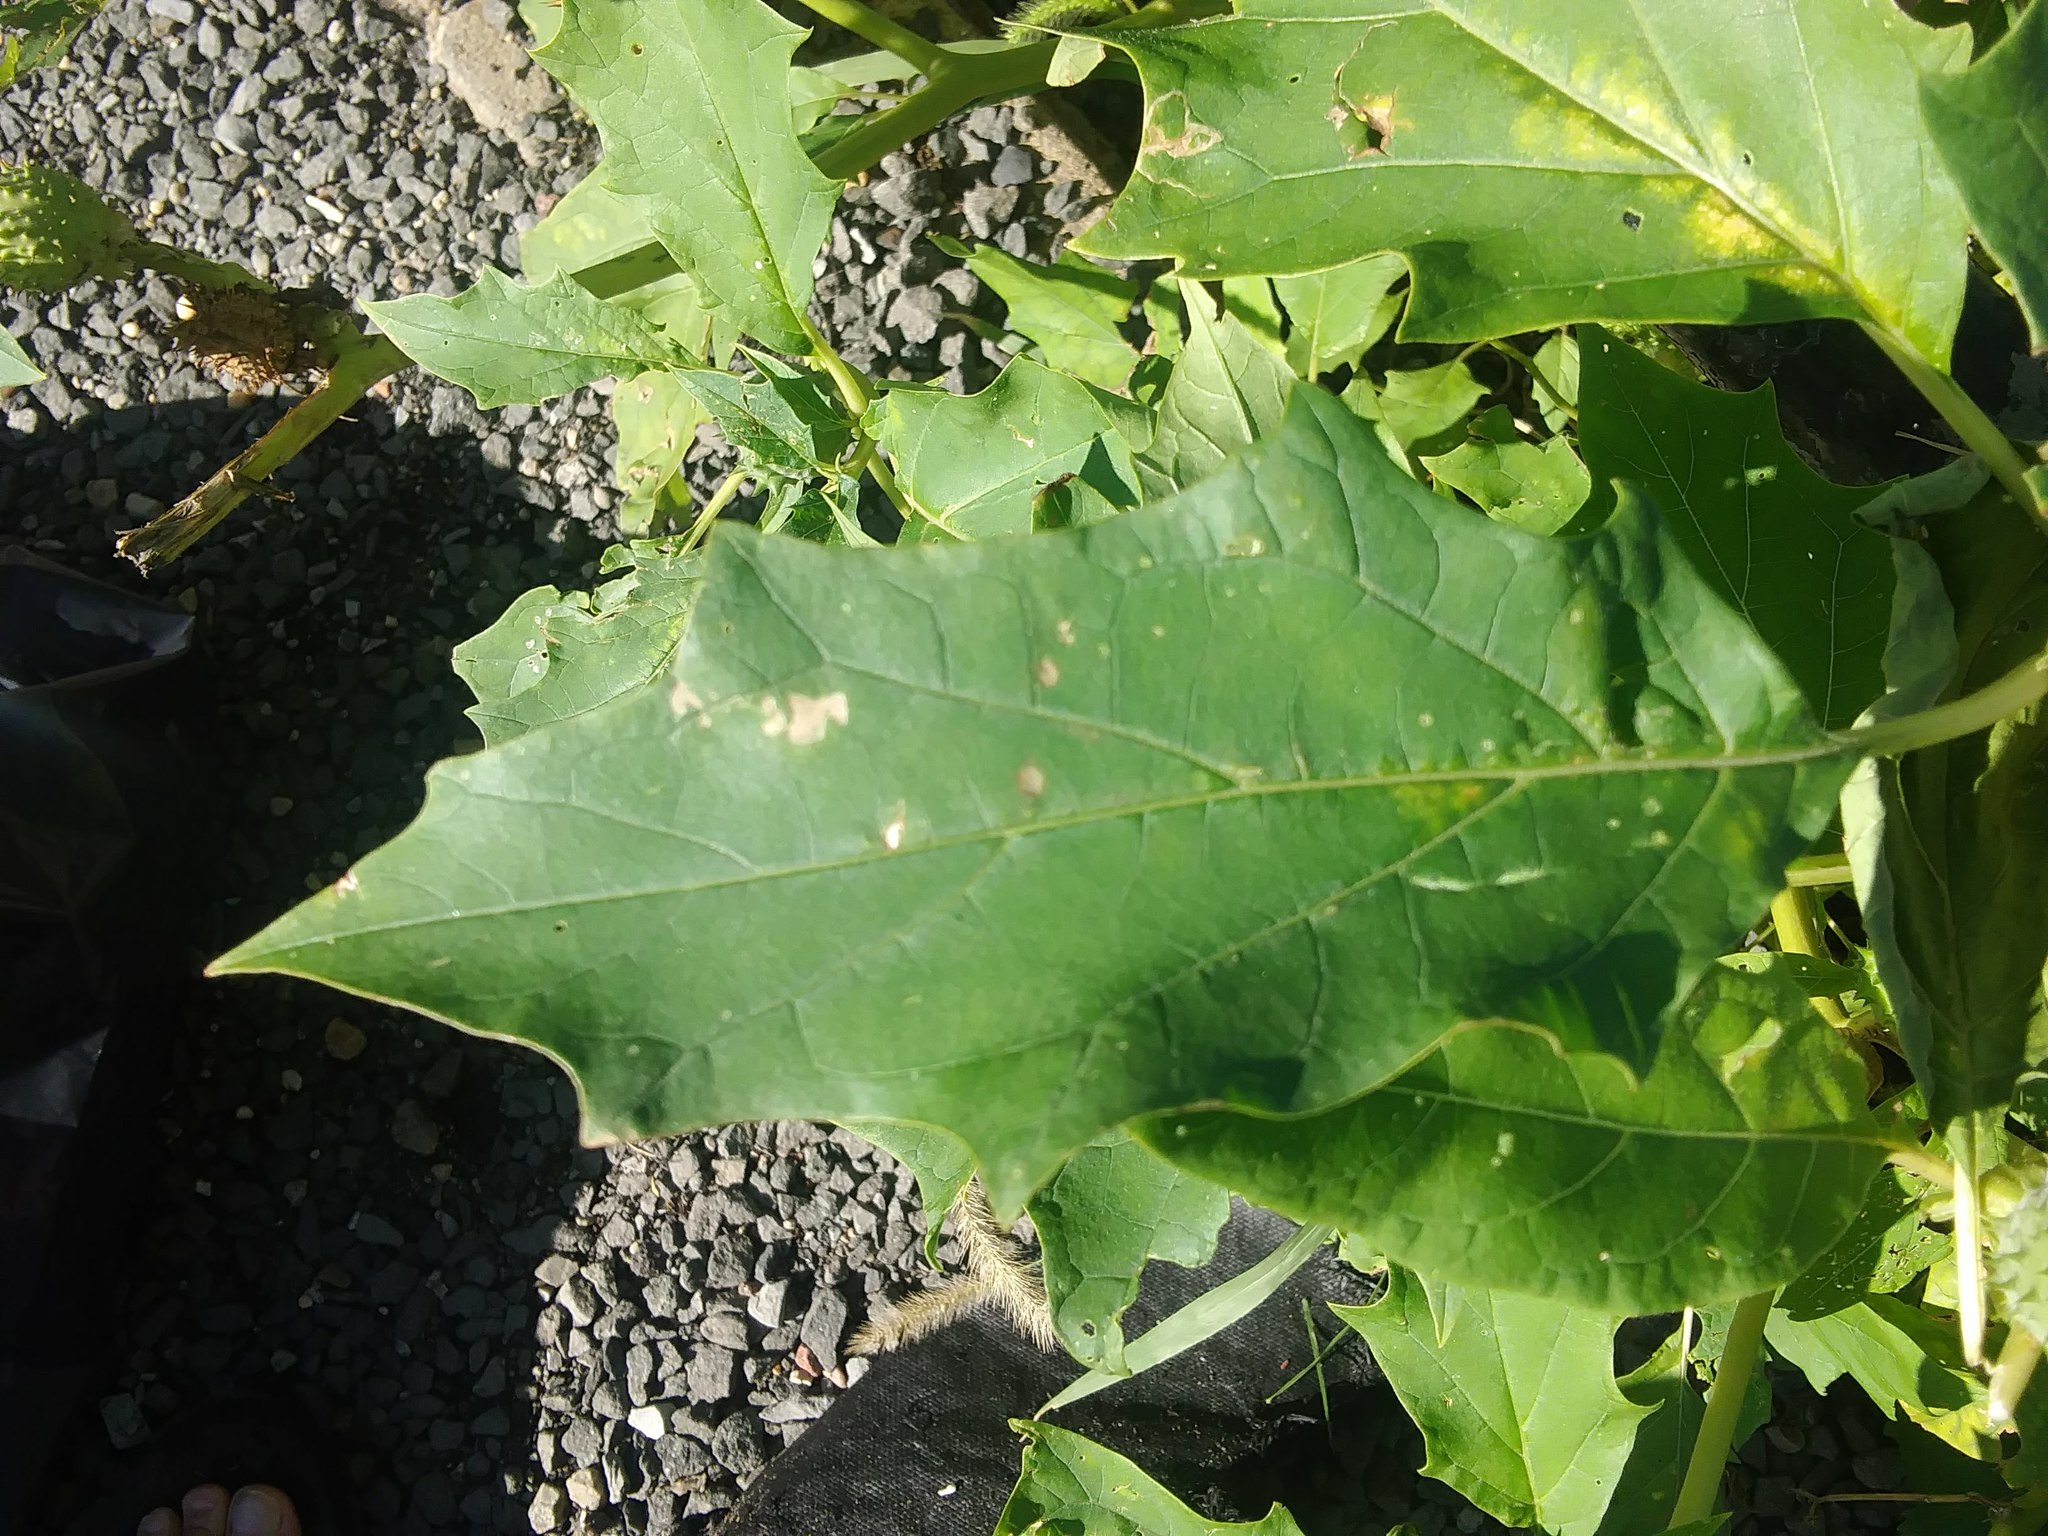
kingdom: Plantae
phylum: Tracheophyta
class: Magnoliopsida
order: Solanales
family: Solanaceae
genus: Datura
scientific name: Datura stramonium
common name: Thorn-apple
